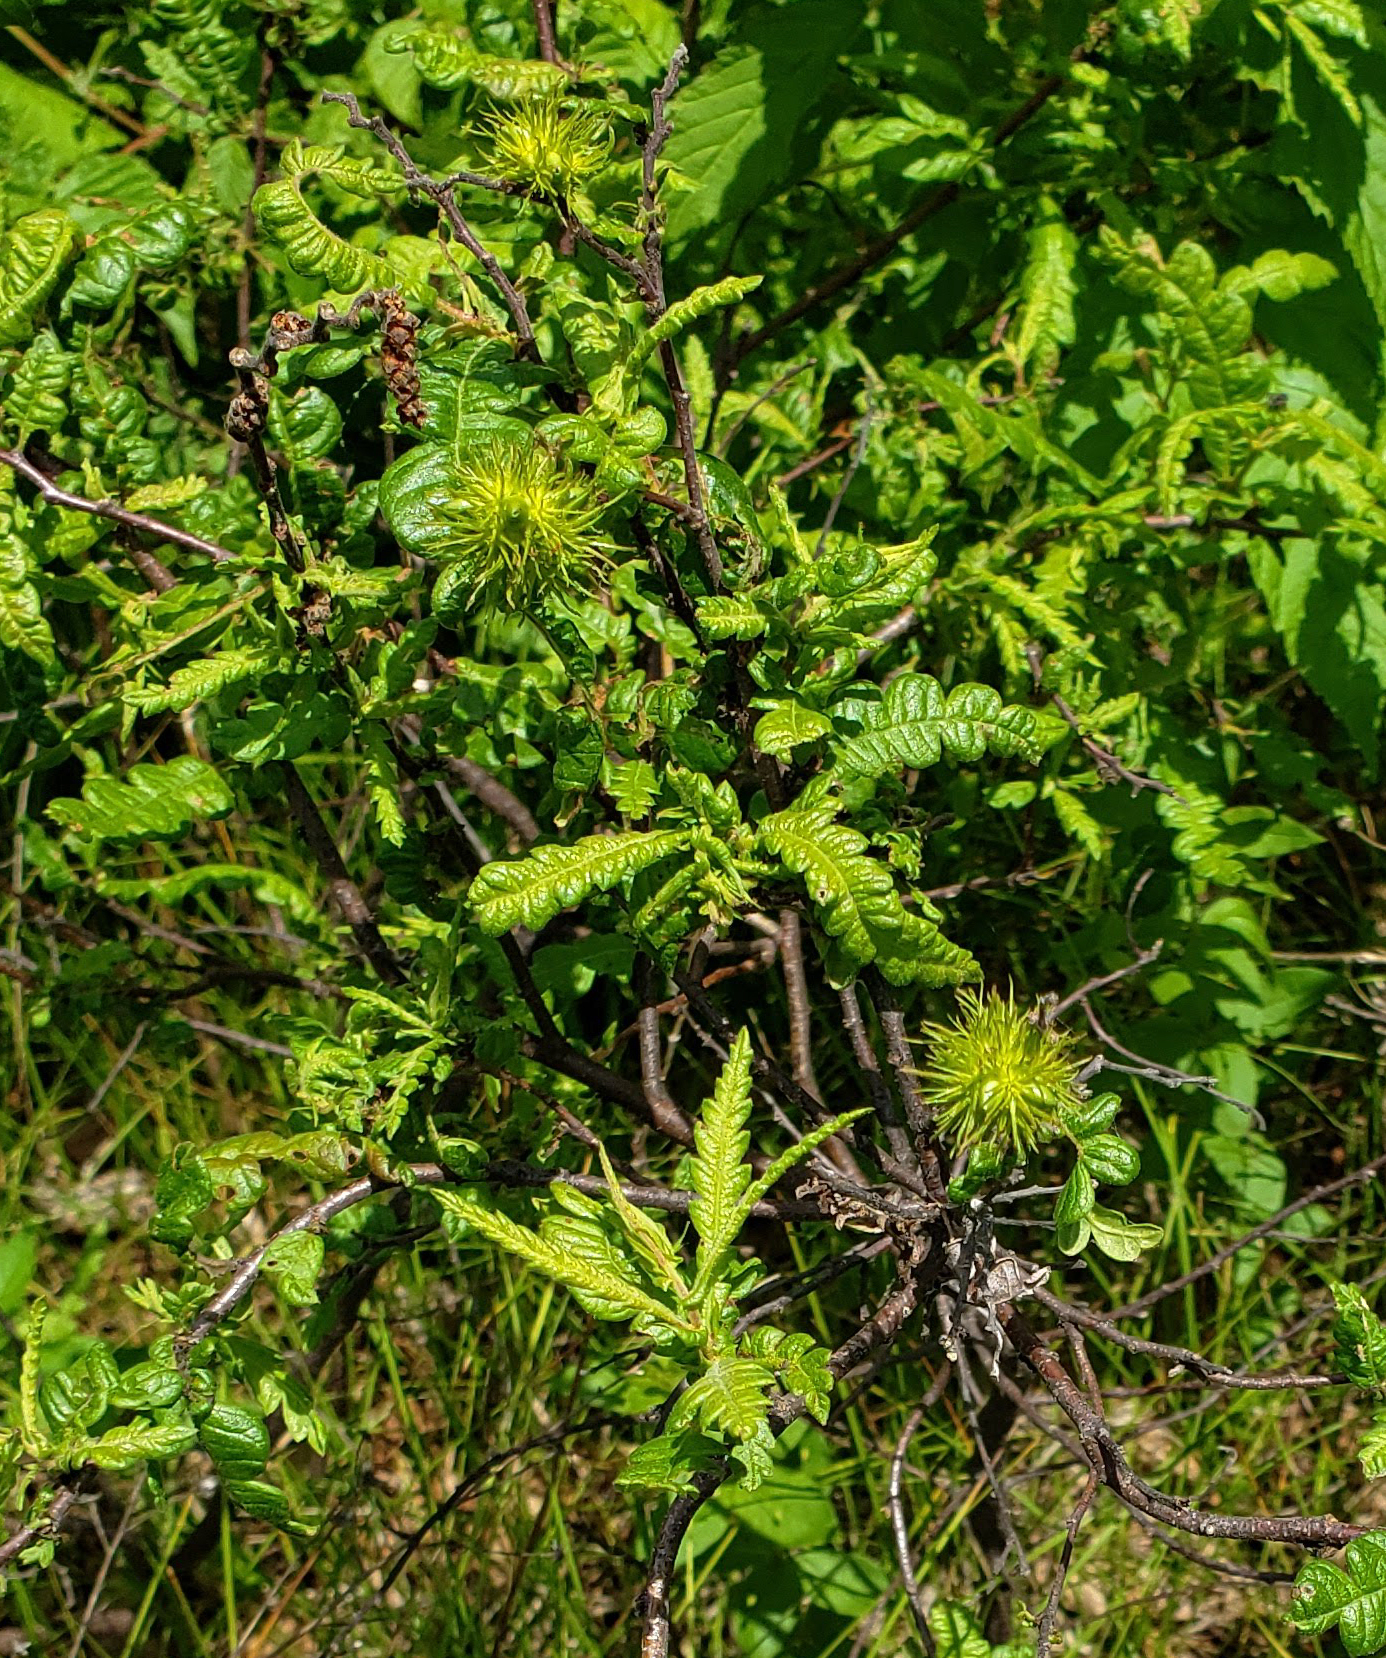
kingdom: Plantae
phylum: Tracheophyta
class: Magnoliopsida
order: Fagales
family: Myricaceae
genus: Comptonia
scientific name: Comptonia peregrina
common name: Sweet-fern
